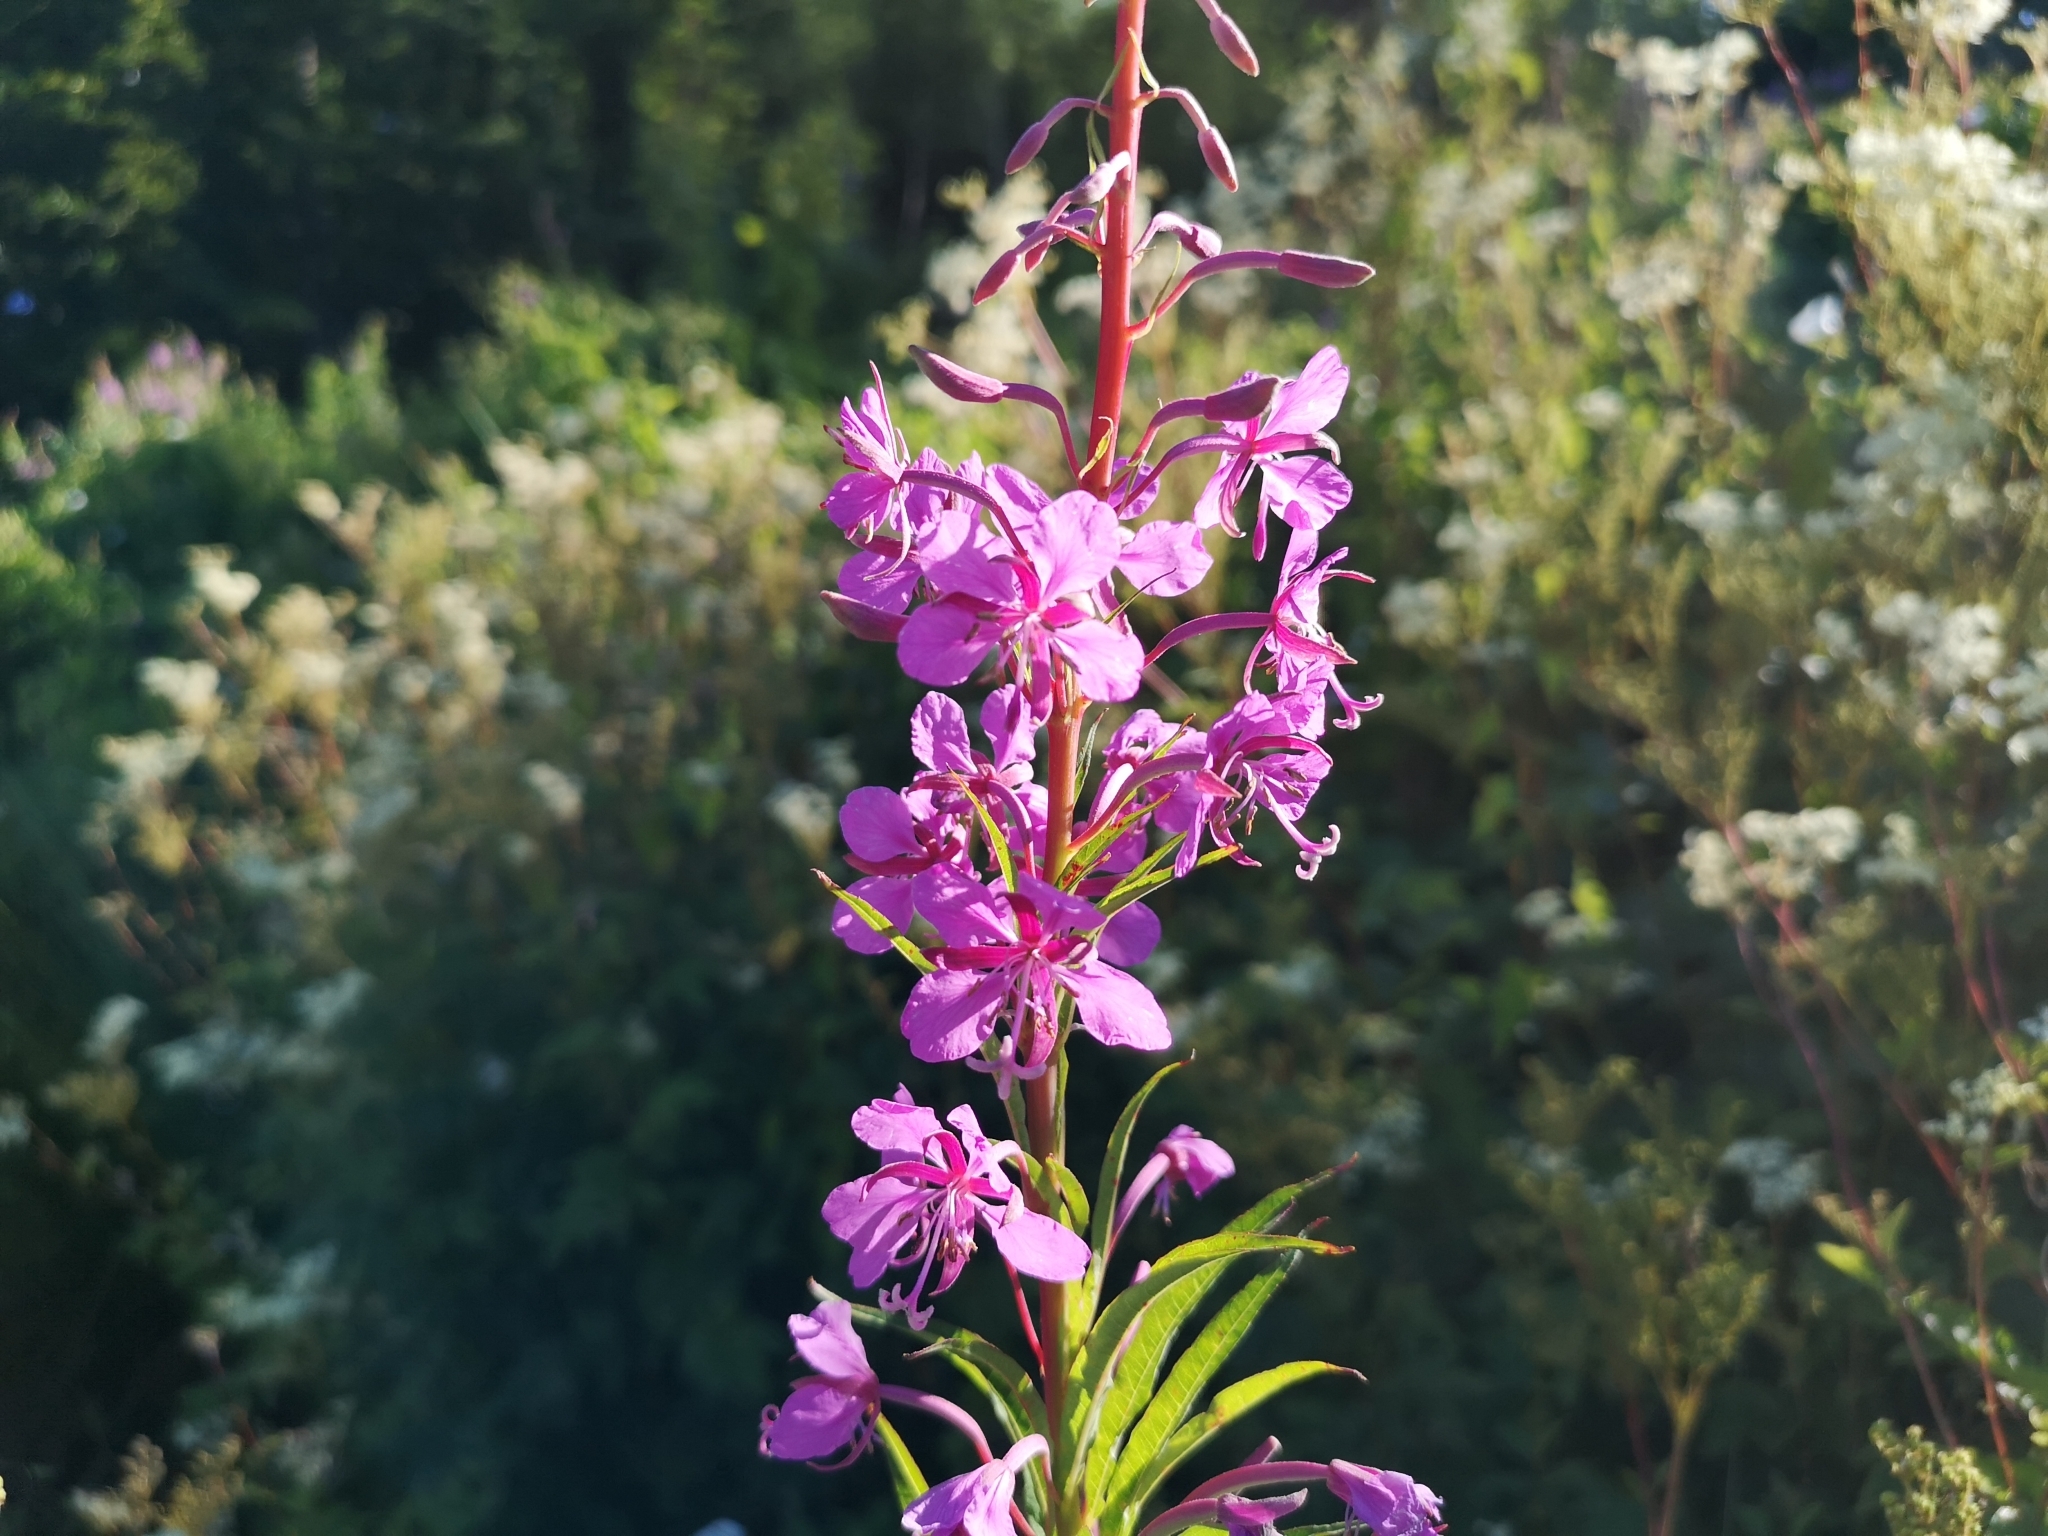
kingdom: Plantae
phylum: Tracheophyta
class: Magnoliopsida
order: Myrtales
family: Onagraceae
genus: Chamaenerion
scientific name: Chamaenerion angustifolium
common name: Fireweed
